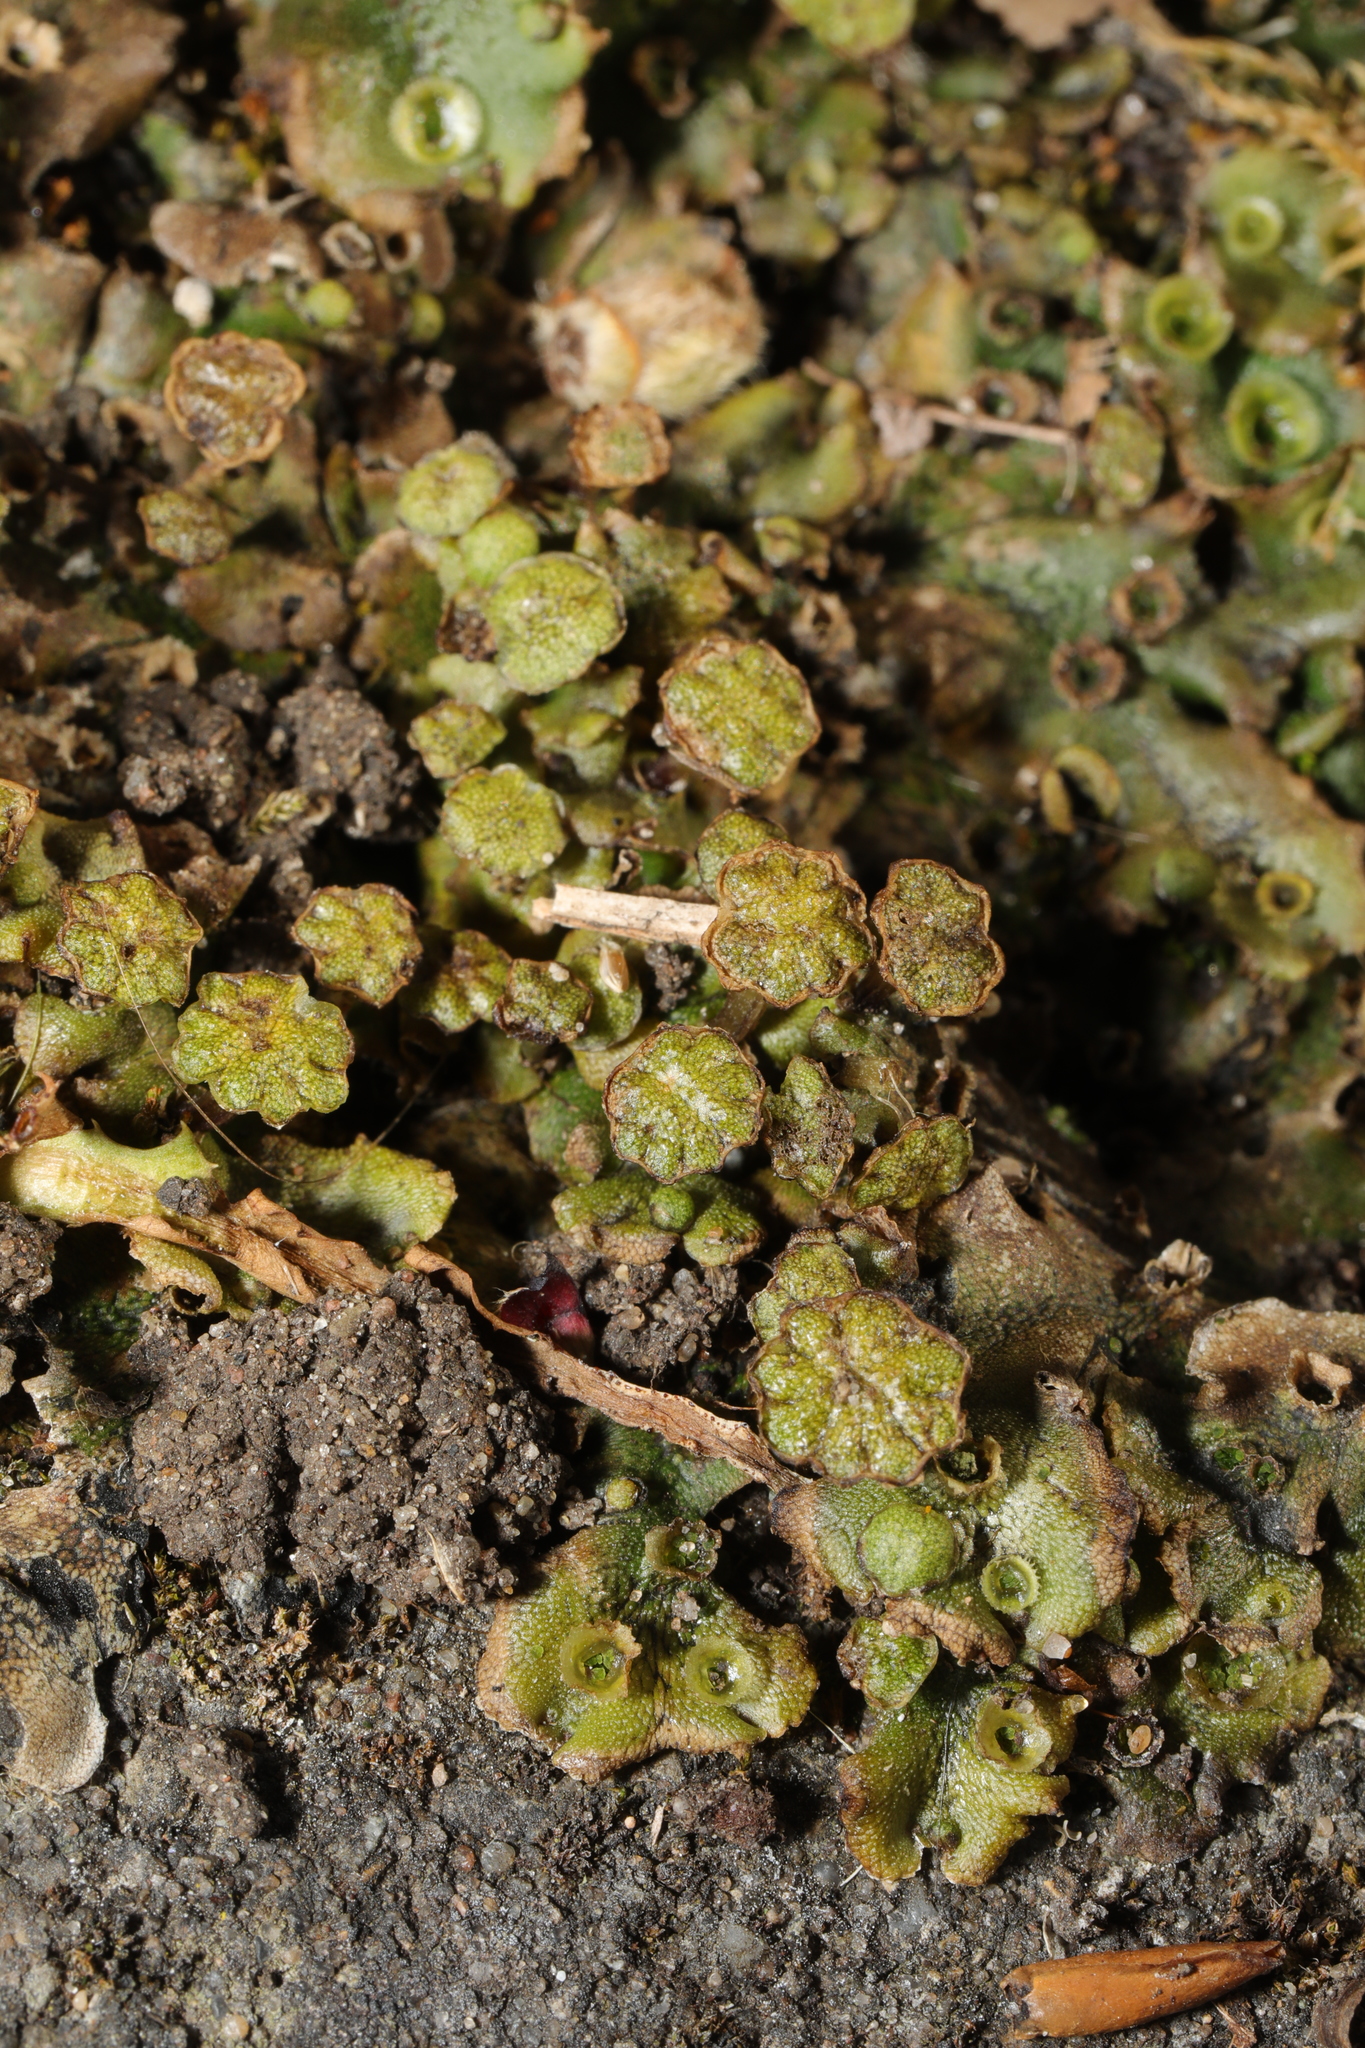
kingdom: Plantae
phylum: Marchantiophyta
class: Marchantiopsida
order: Marchantiales
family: Marchantiaceae
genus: Marchantia
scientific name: Marchantia polymorpha
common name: Common liverwort
